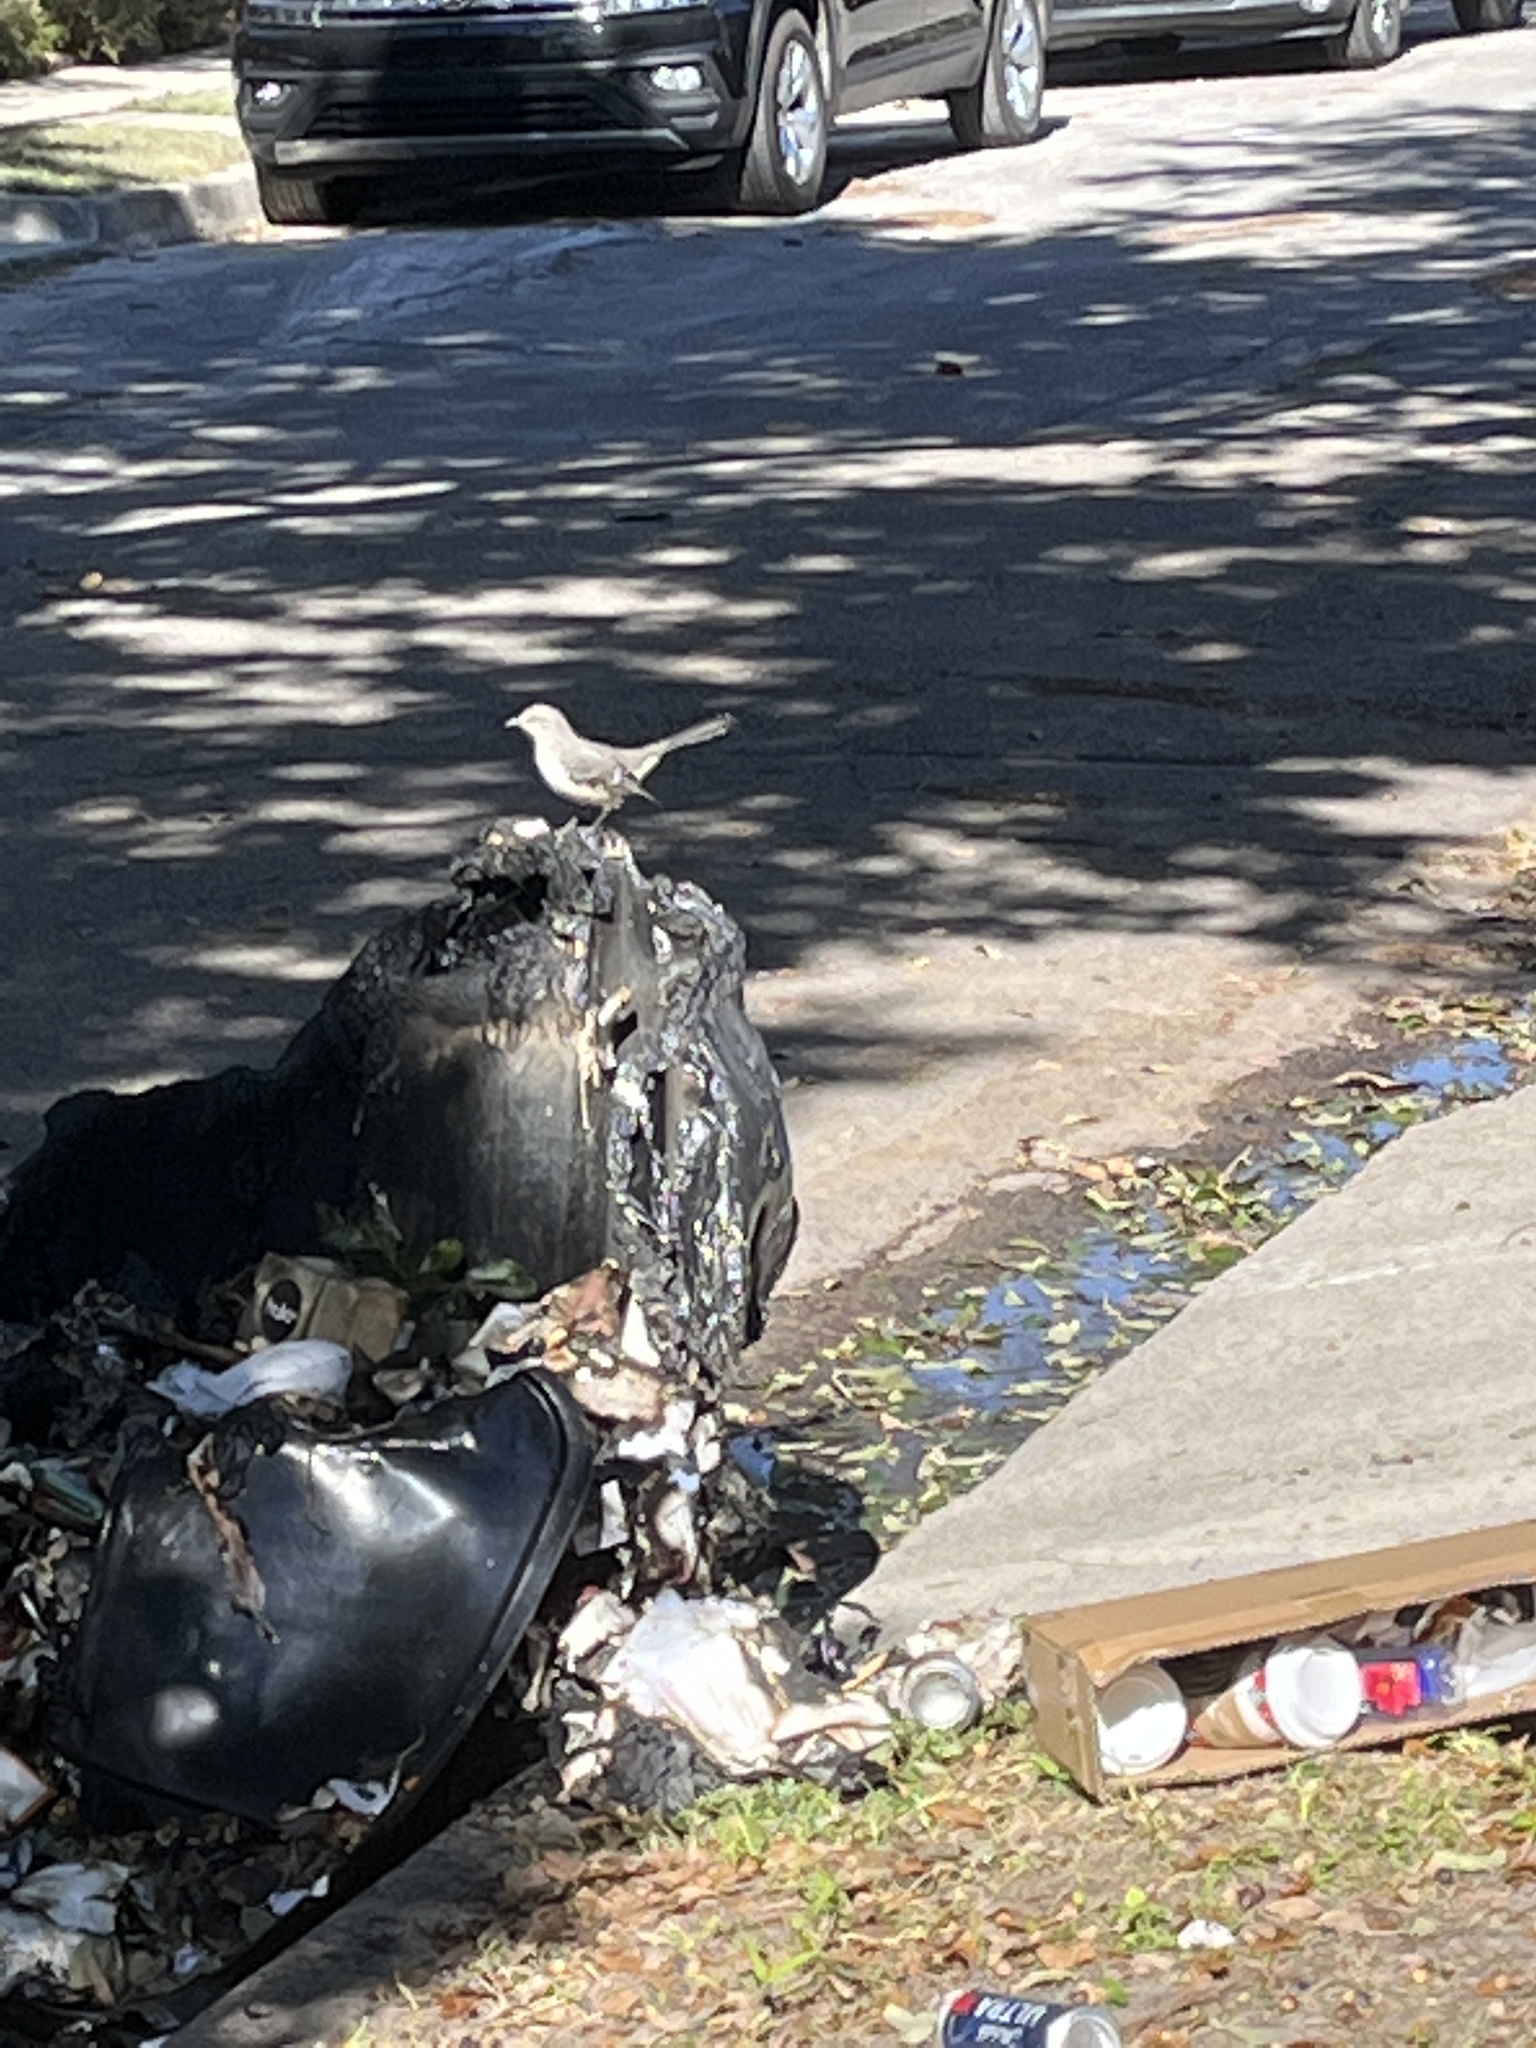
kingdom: Animalia
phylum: Chordata
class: Aves
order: Passeriformes
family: Mimidae
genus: Mimus
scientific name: Mimus polyglottos
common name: Northern mockingbird
